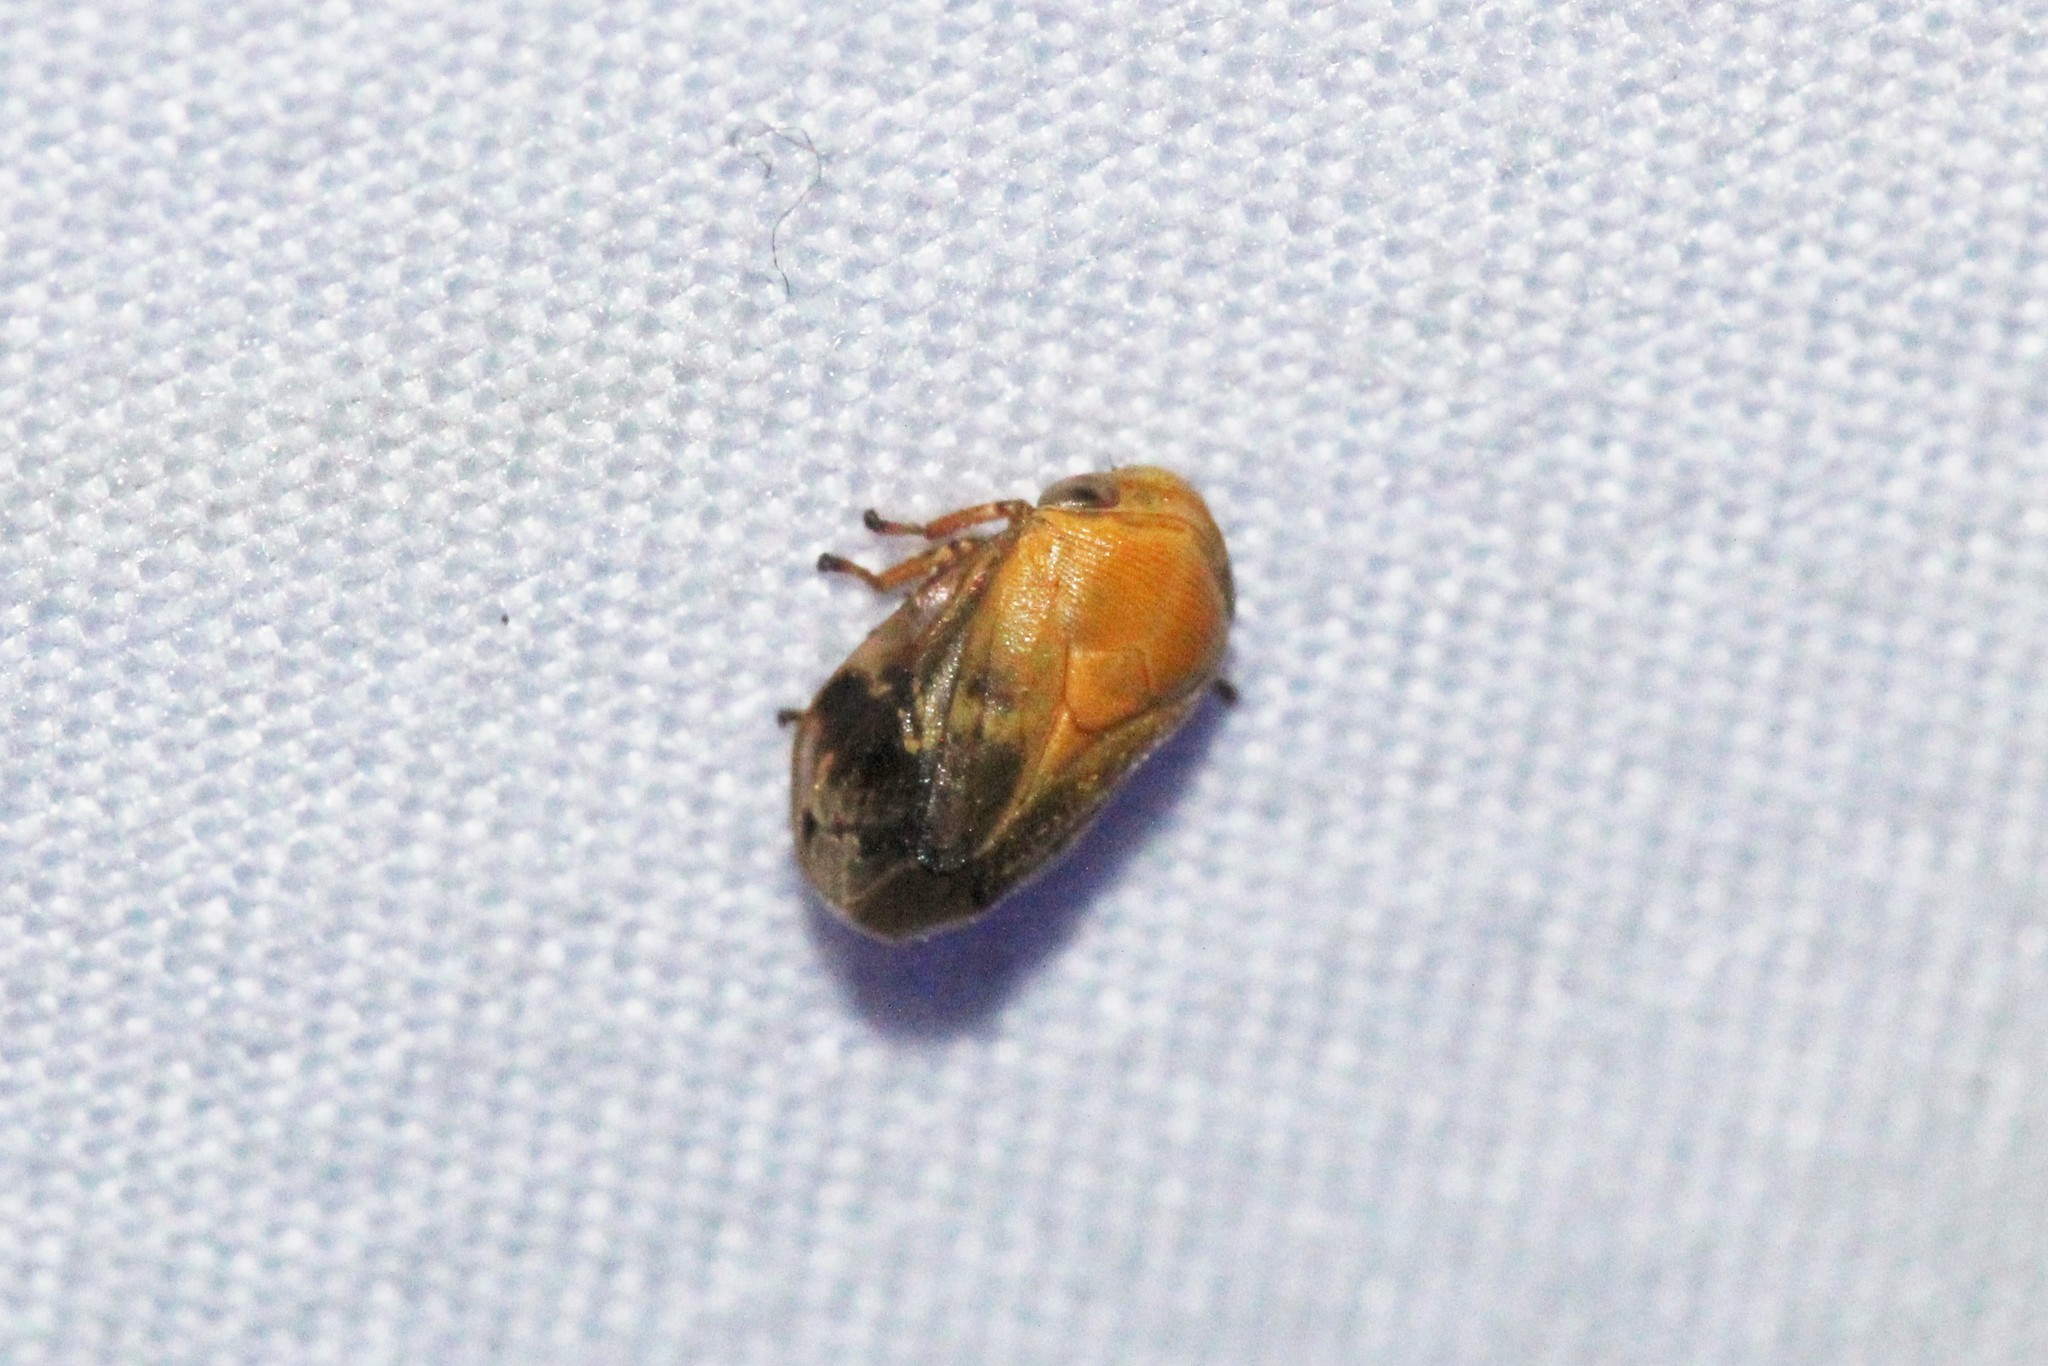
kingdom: Animalia
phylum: Arthropoda
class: Insecta
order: Hemiptera
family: Clastopteridae
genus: Clastoptera
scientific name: Clastoptera achatina
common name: Pecan spittlebug
